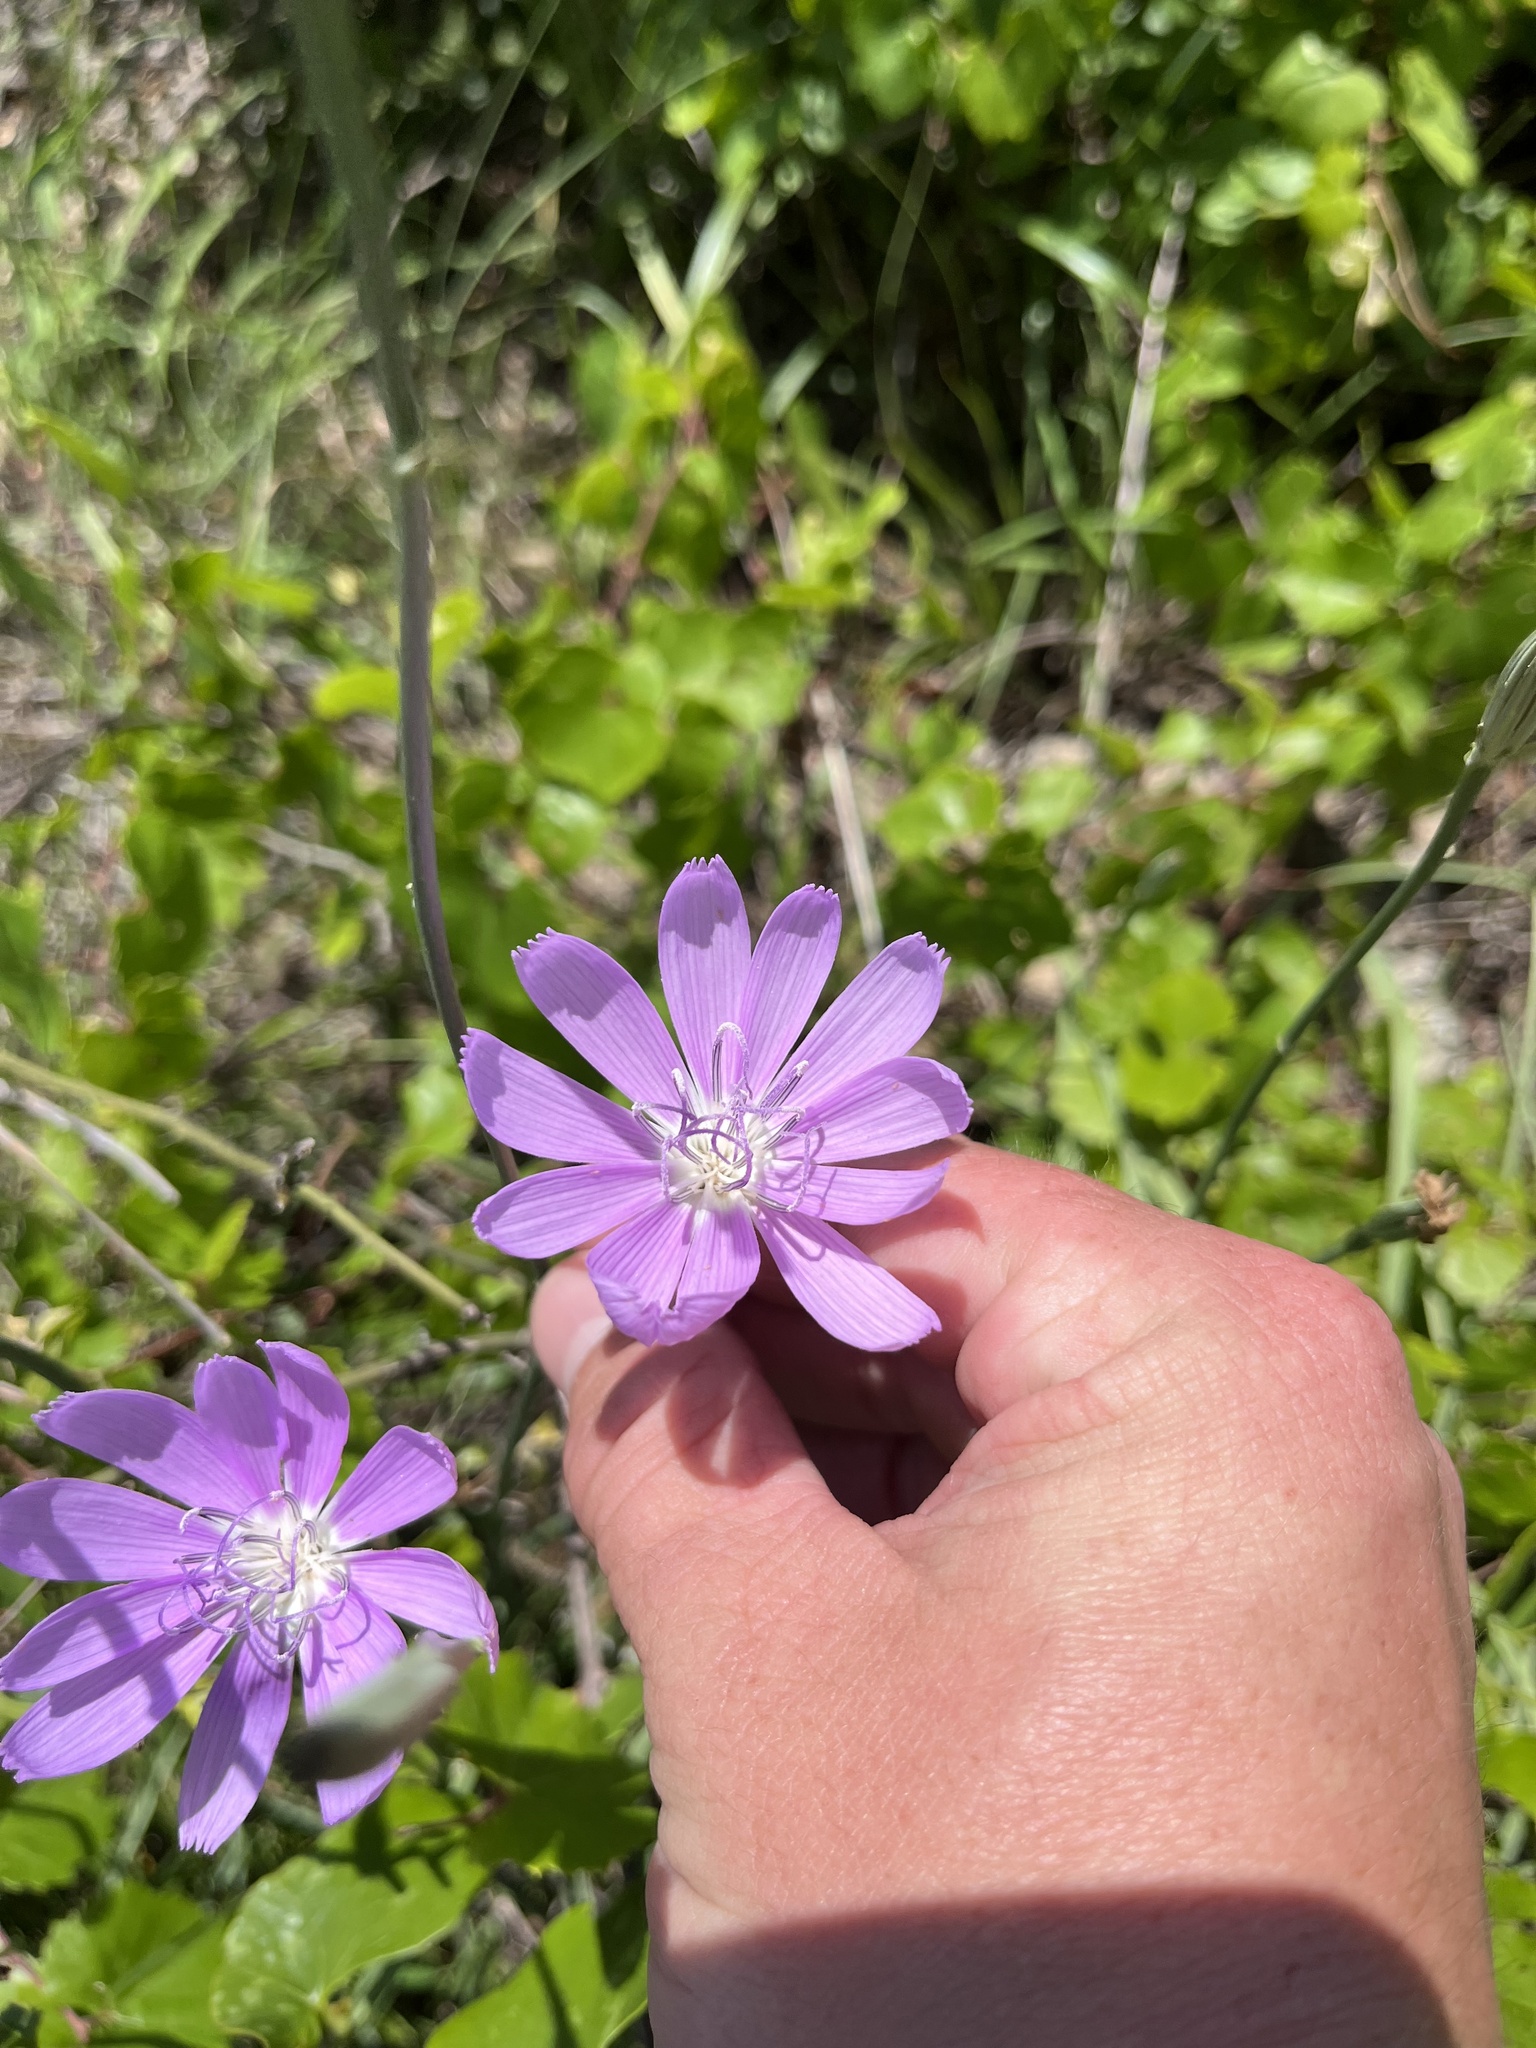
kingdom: Plantae
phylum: Tracheophyta
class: Magnoliopsida
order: Asterales
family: Asteraceae
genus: Lygodesmia
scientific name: Lygodesmia texana
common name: Texas skeleton-plant
